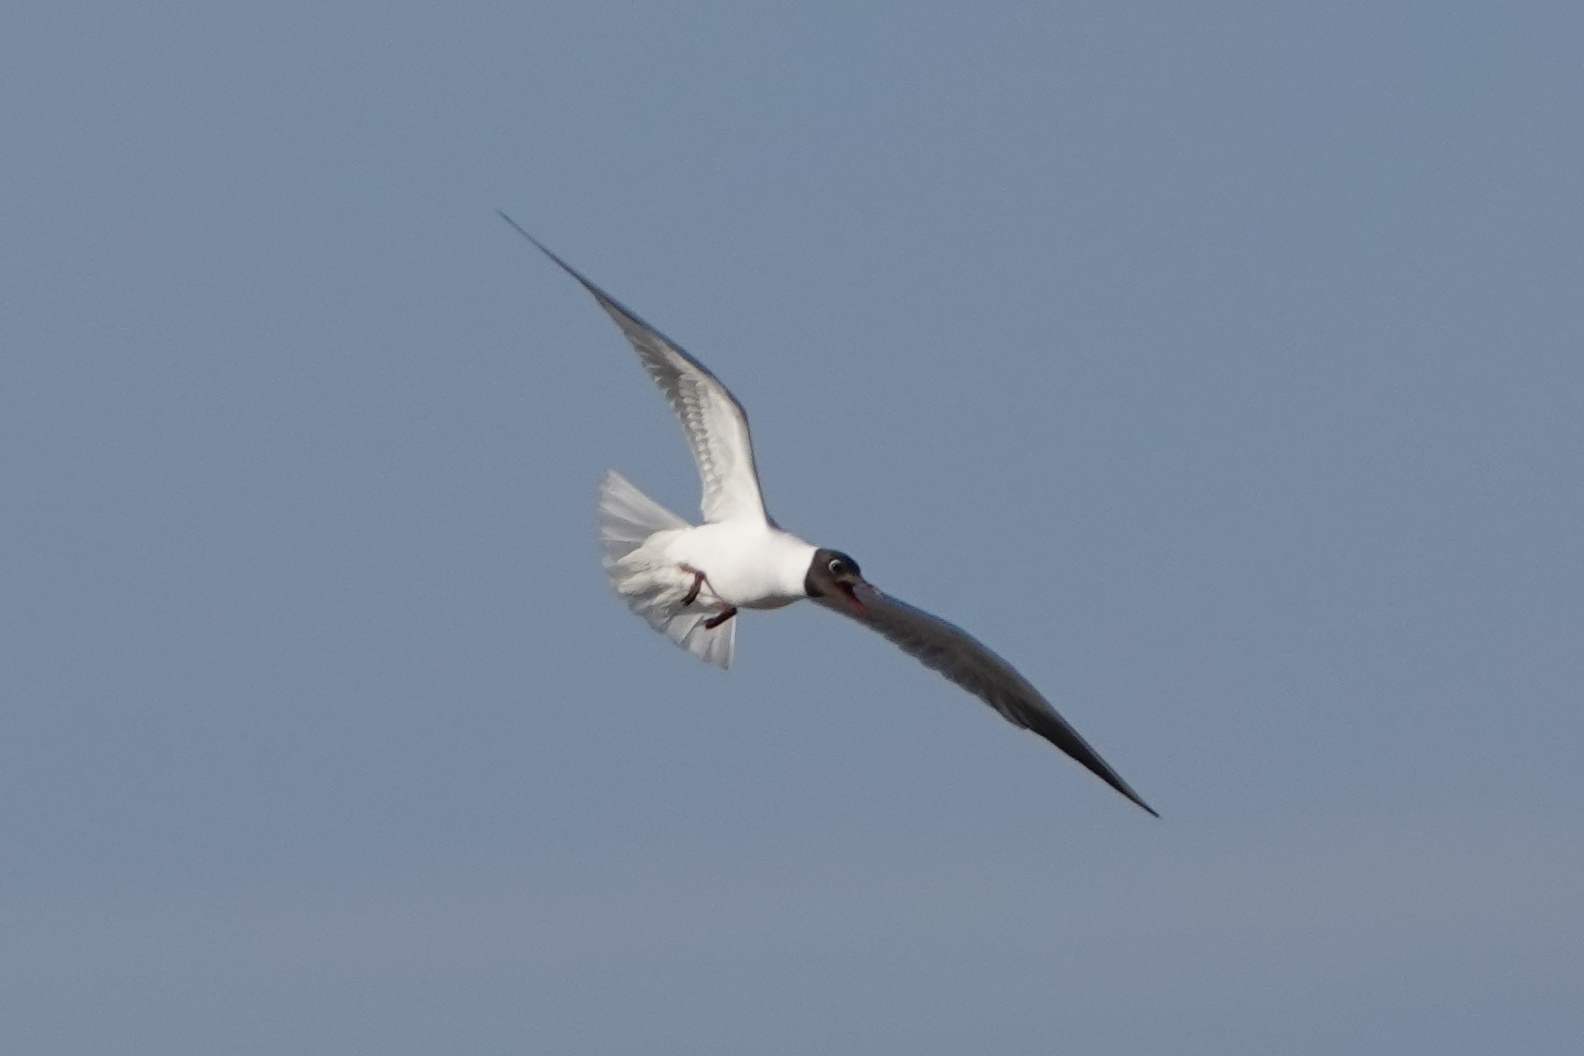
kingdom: Animalia
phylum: Chordata
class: Aves
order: Charadriiformes
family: Laridae
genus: Chroicocephalus
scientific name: Chroicocephalus ridibundus
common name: Black-headed gull
